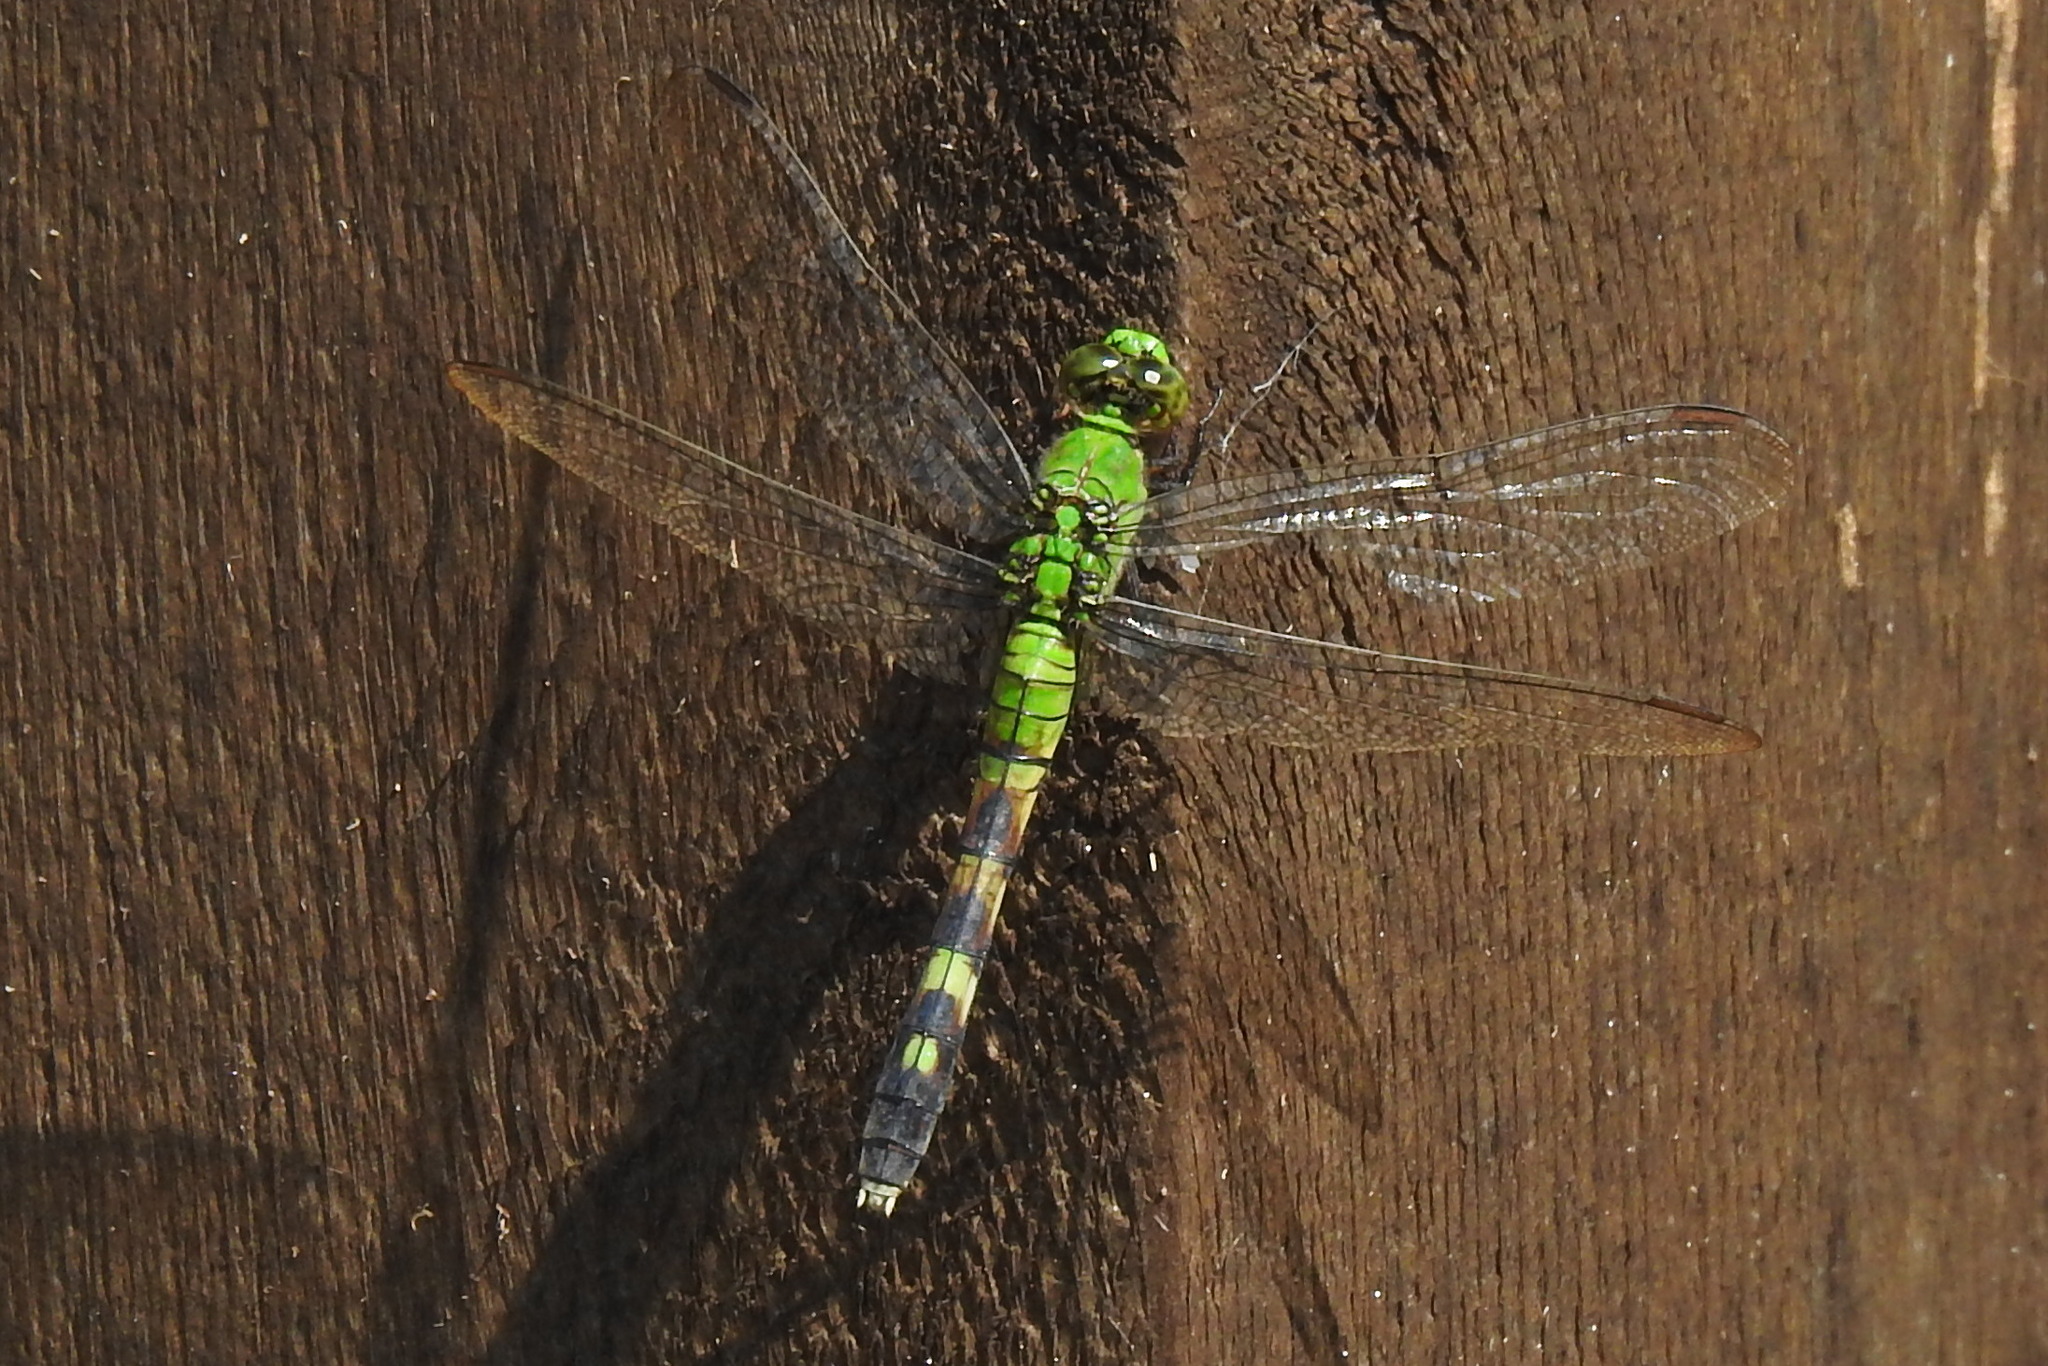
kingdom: Animalia
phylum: Arthropoda
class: Insecta
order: Odonata
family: Libellulidae
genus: Erythemis
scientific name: Erythemis simplicicollis
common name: Eastern pondhawk
